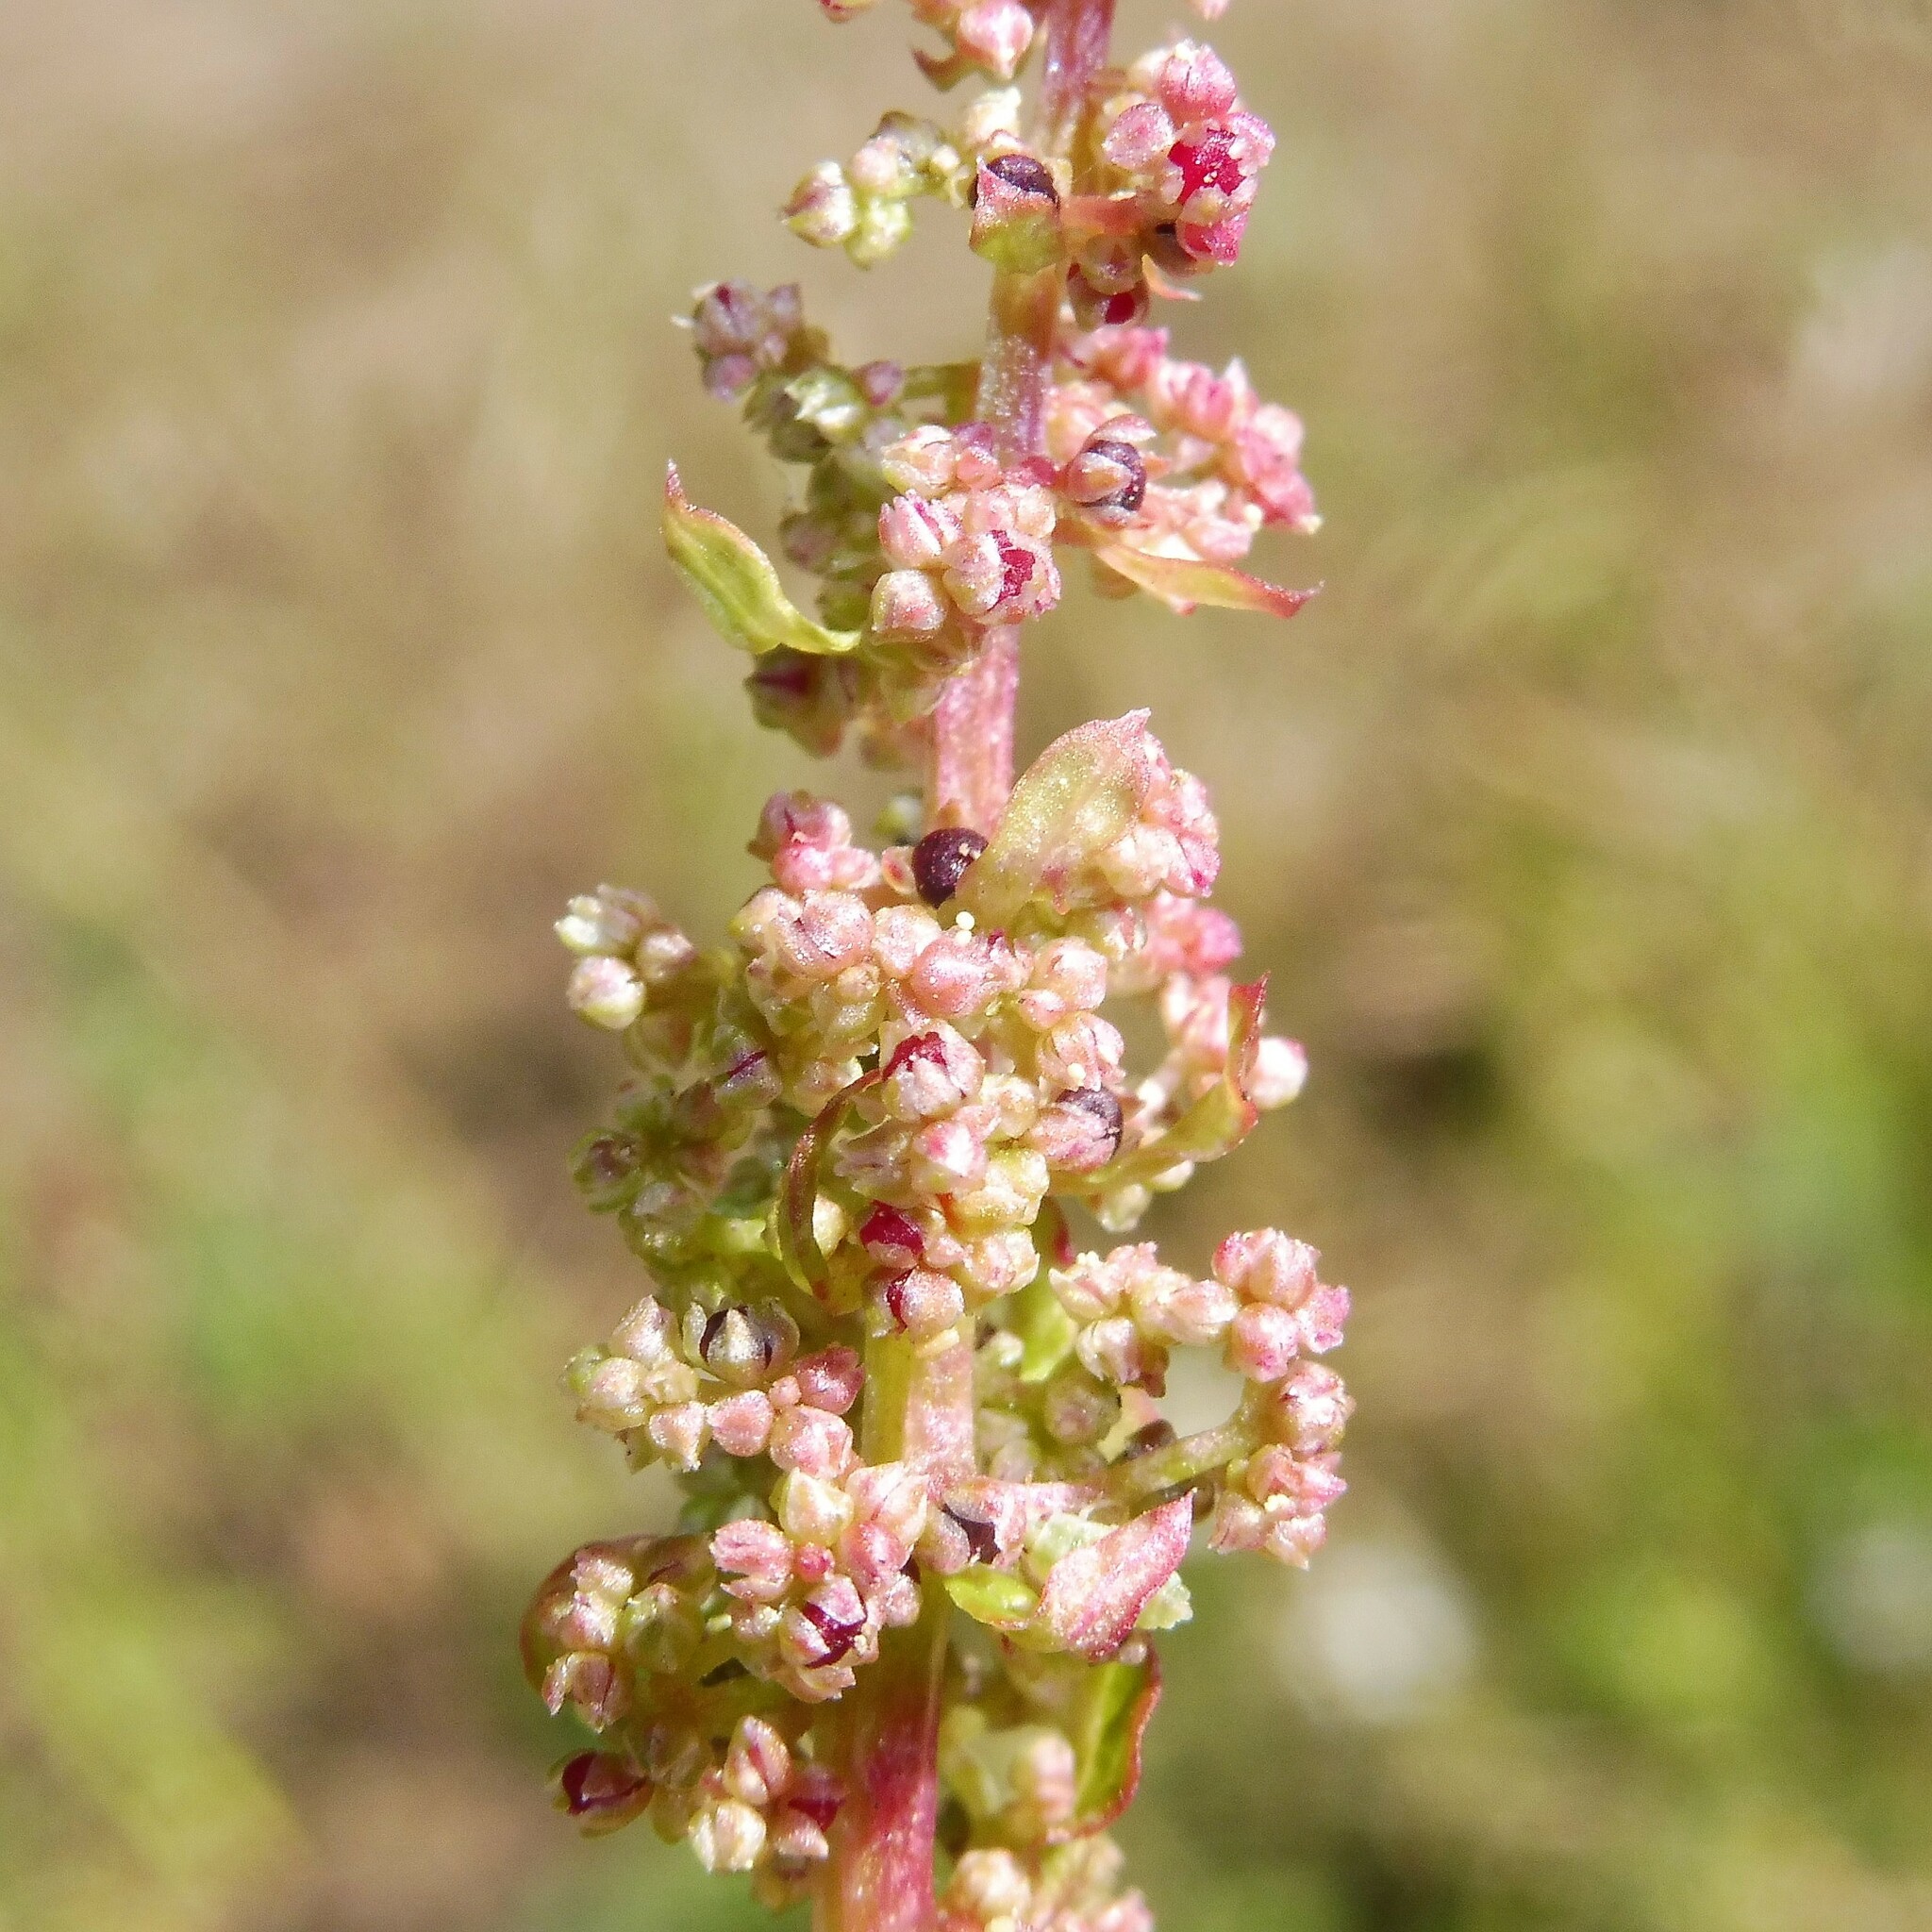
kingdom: Plantae
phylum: Tracheophyta
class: Magnoliopsida
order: Caryophyllales
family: Amaranthaceae
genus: Lipandra
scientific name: Lipandra polysperma
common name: Many-seed goosefoot
